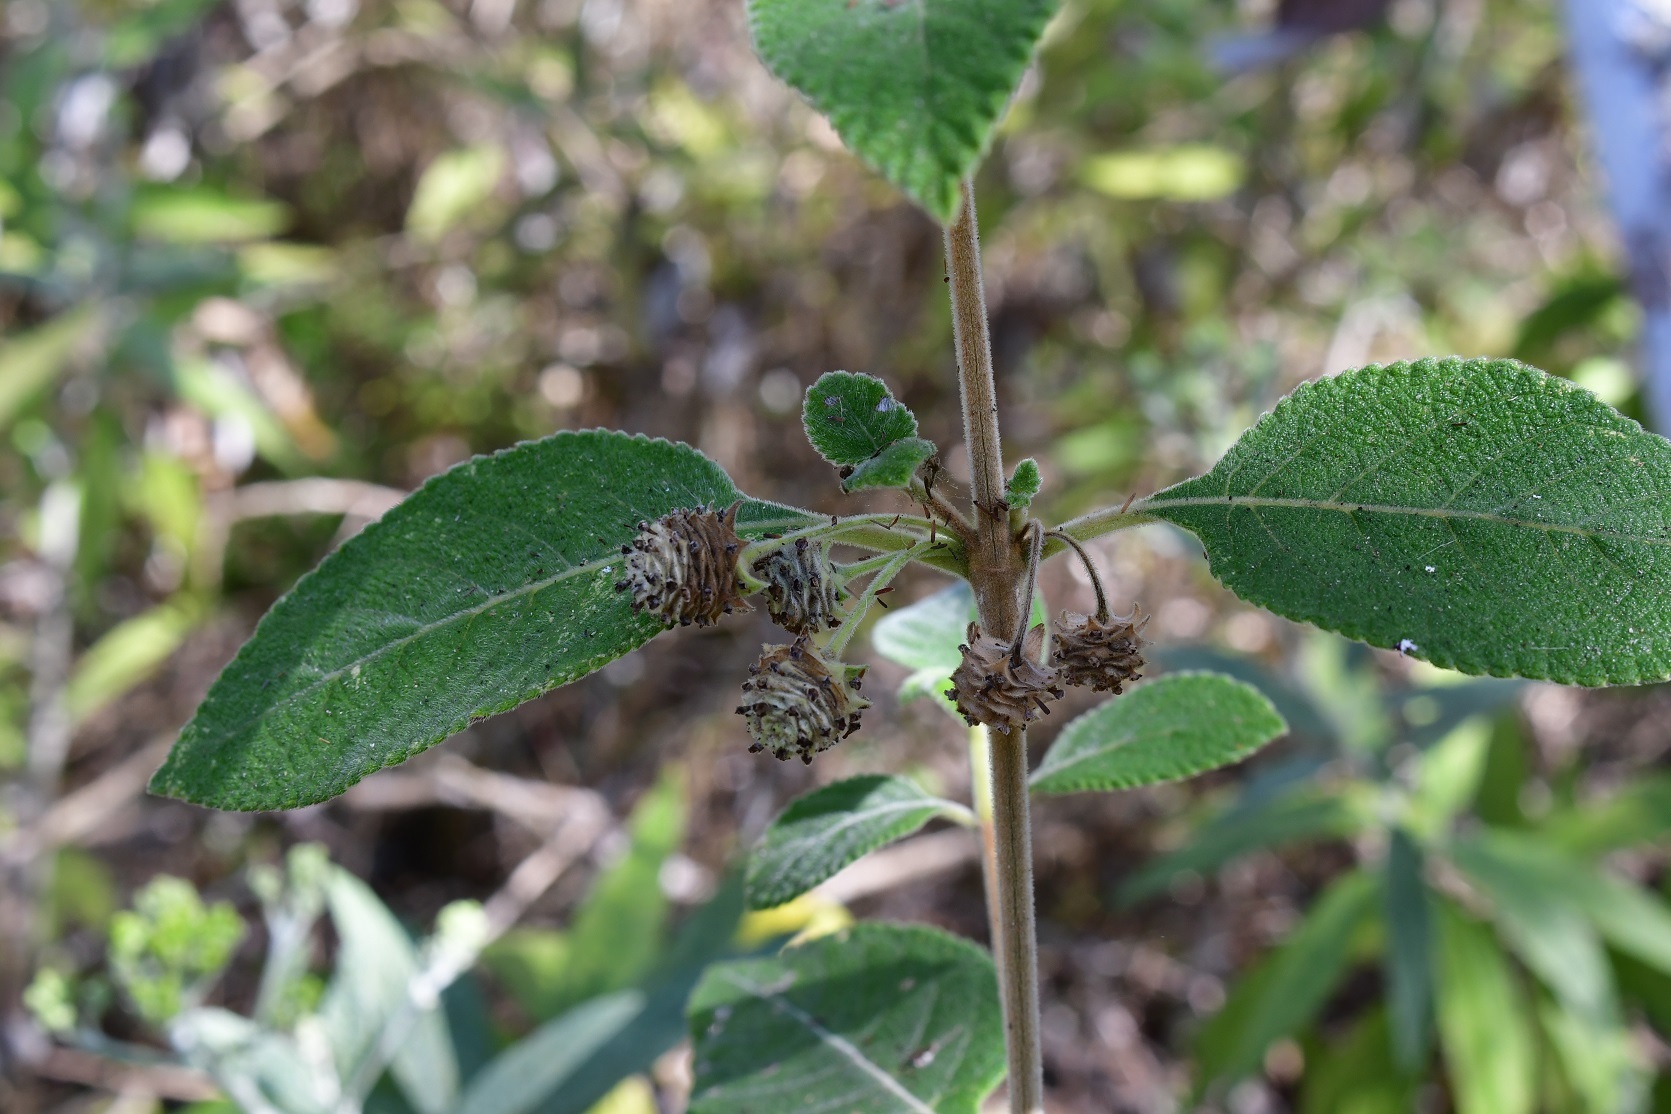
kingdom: Plantae
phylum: Tracheophyta
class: Magnoliopsida
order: Lamiales
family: Verbenaceae
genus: Lippia
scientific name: Lippia umbellata
